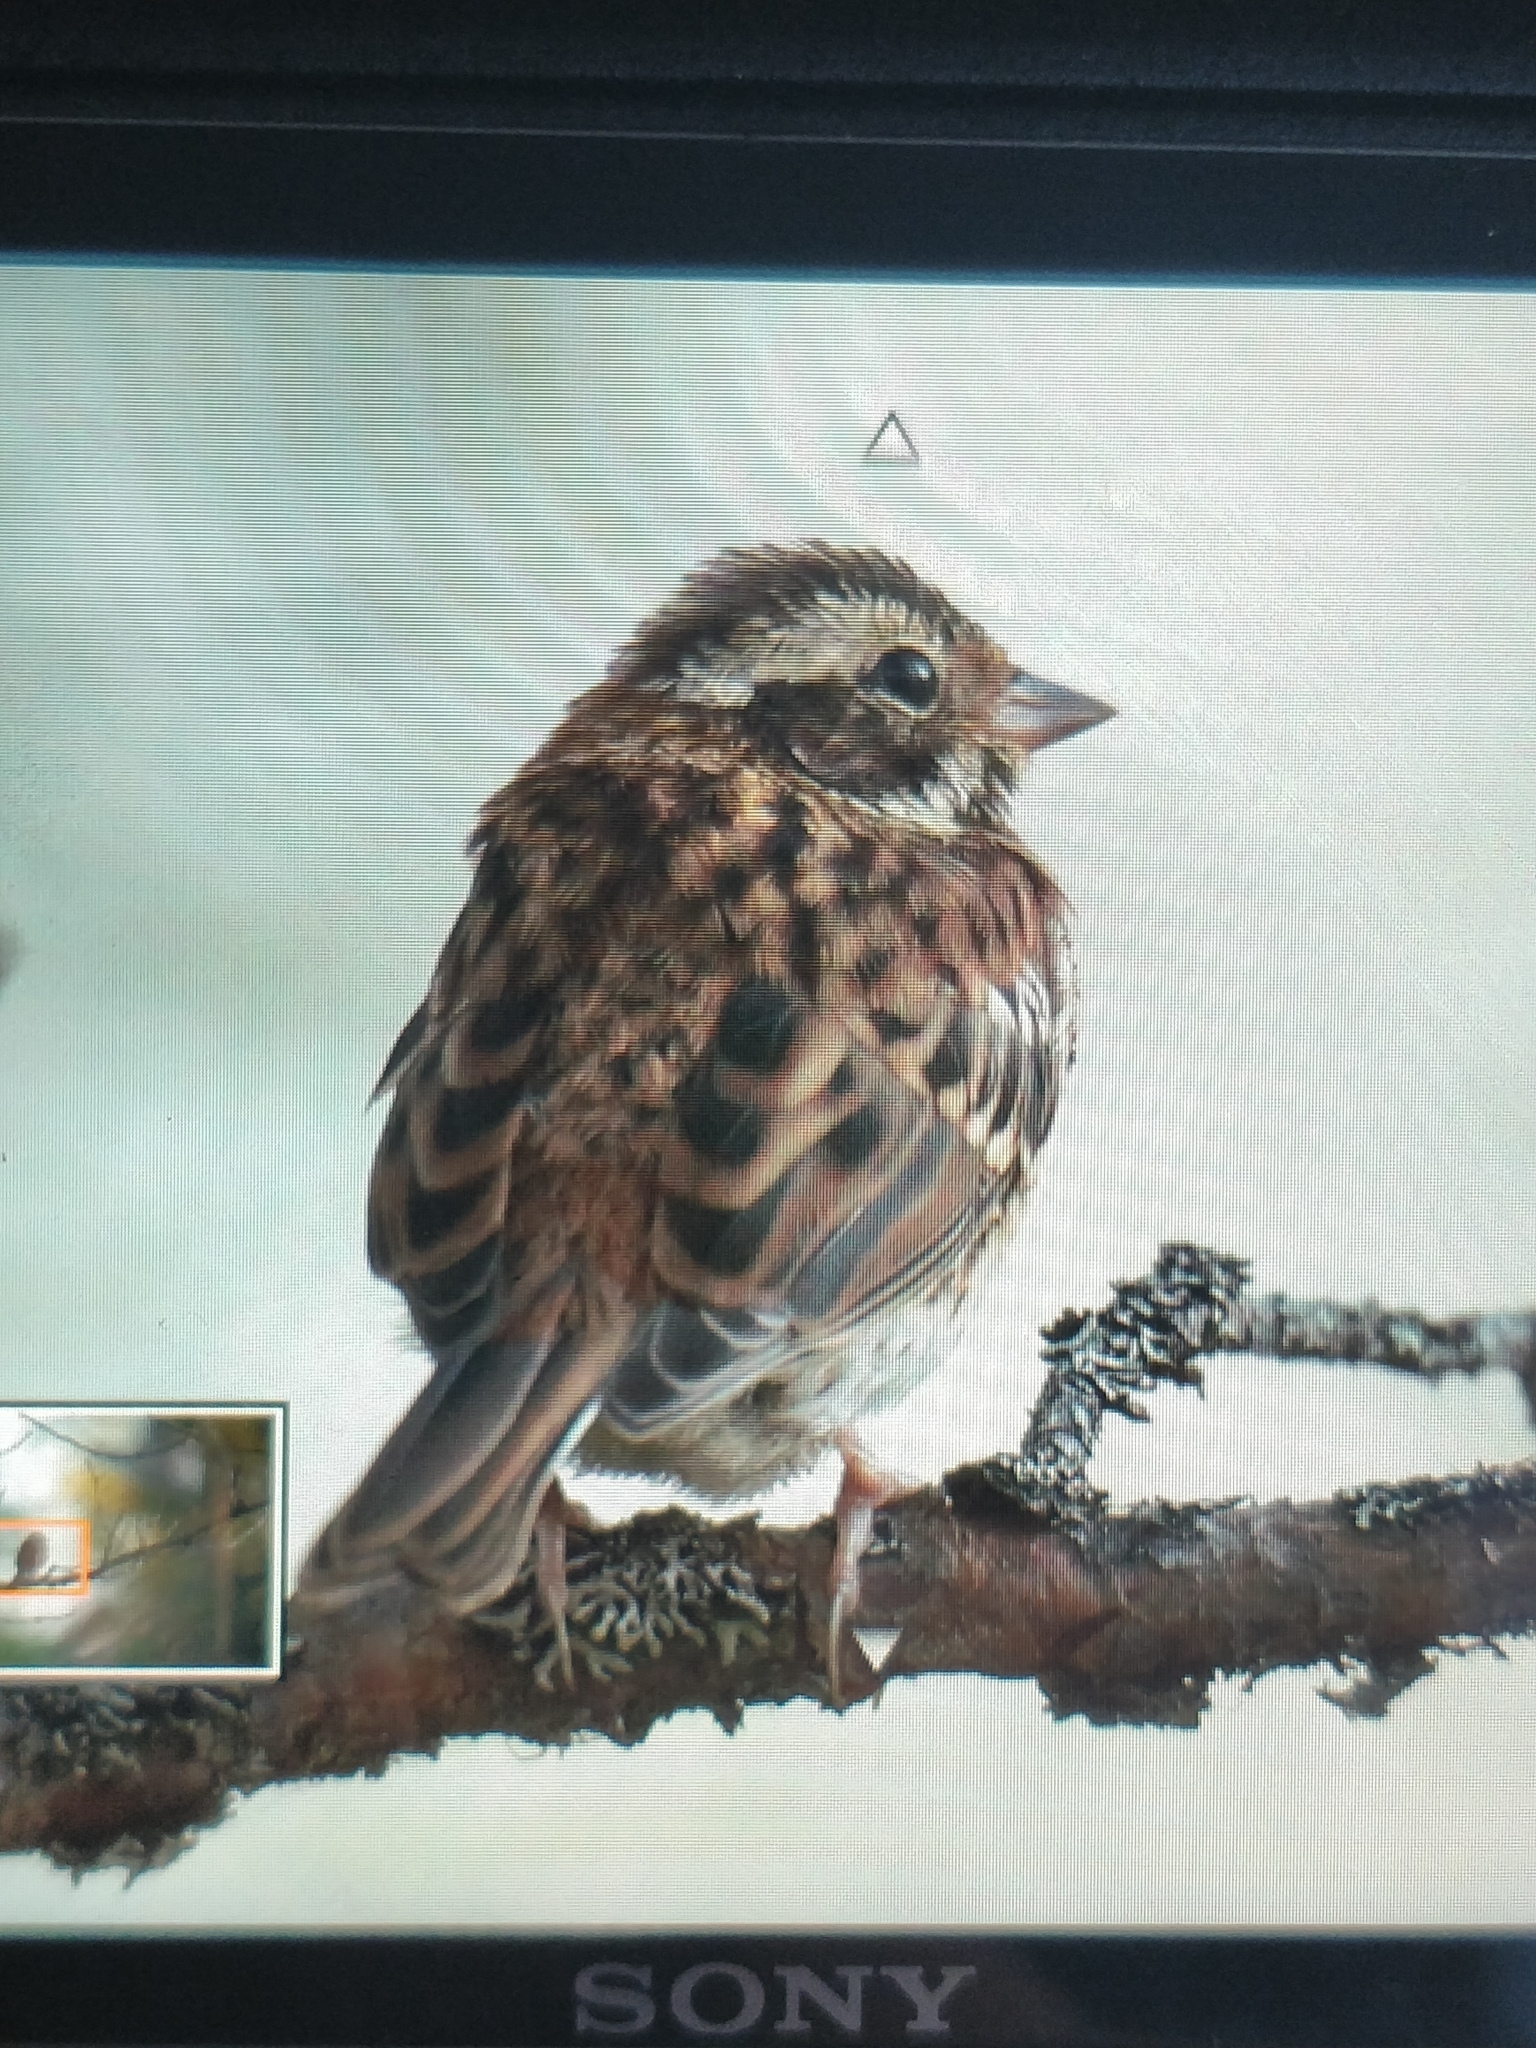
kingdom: Animalia
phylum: Chordata
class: Aves
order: Passeriformes
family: Emberizidae
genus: Emberiza
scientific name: Emberiza rustica
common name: Rustic bunting
